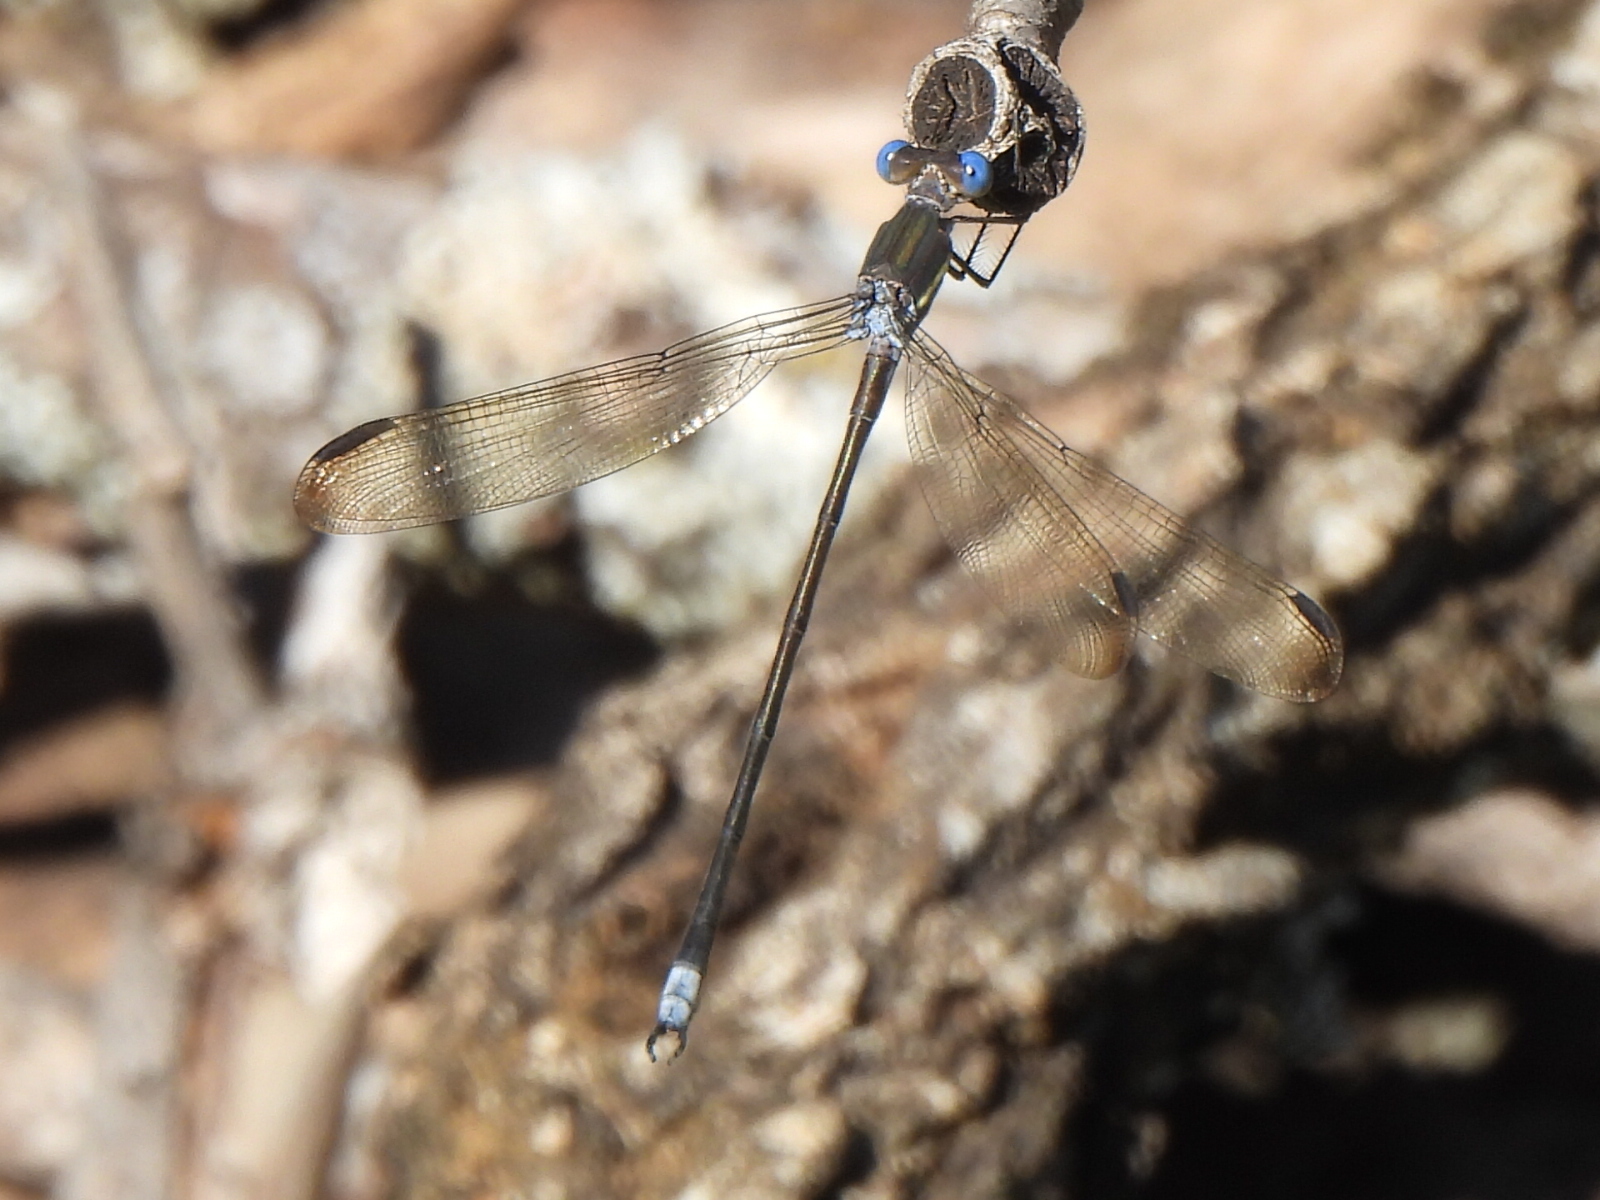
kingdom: Animalia
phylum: Arthropoda
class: Insecta
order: Odonata
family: Lestidae
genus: Archilestes
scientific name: Archilestes grandis
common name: Great spreadwing
